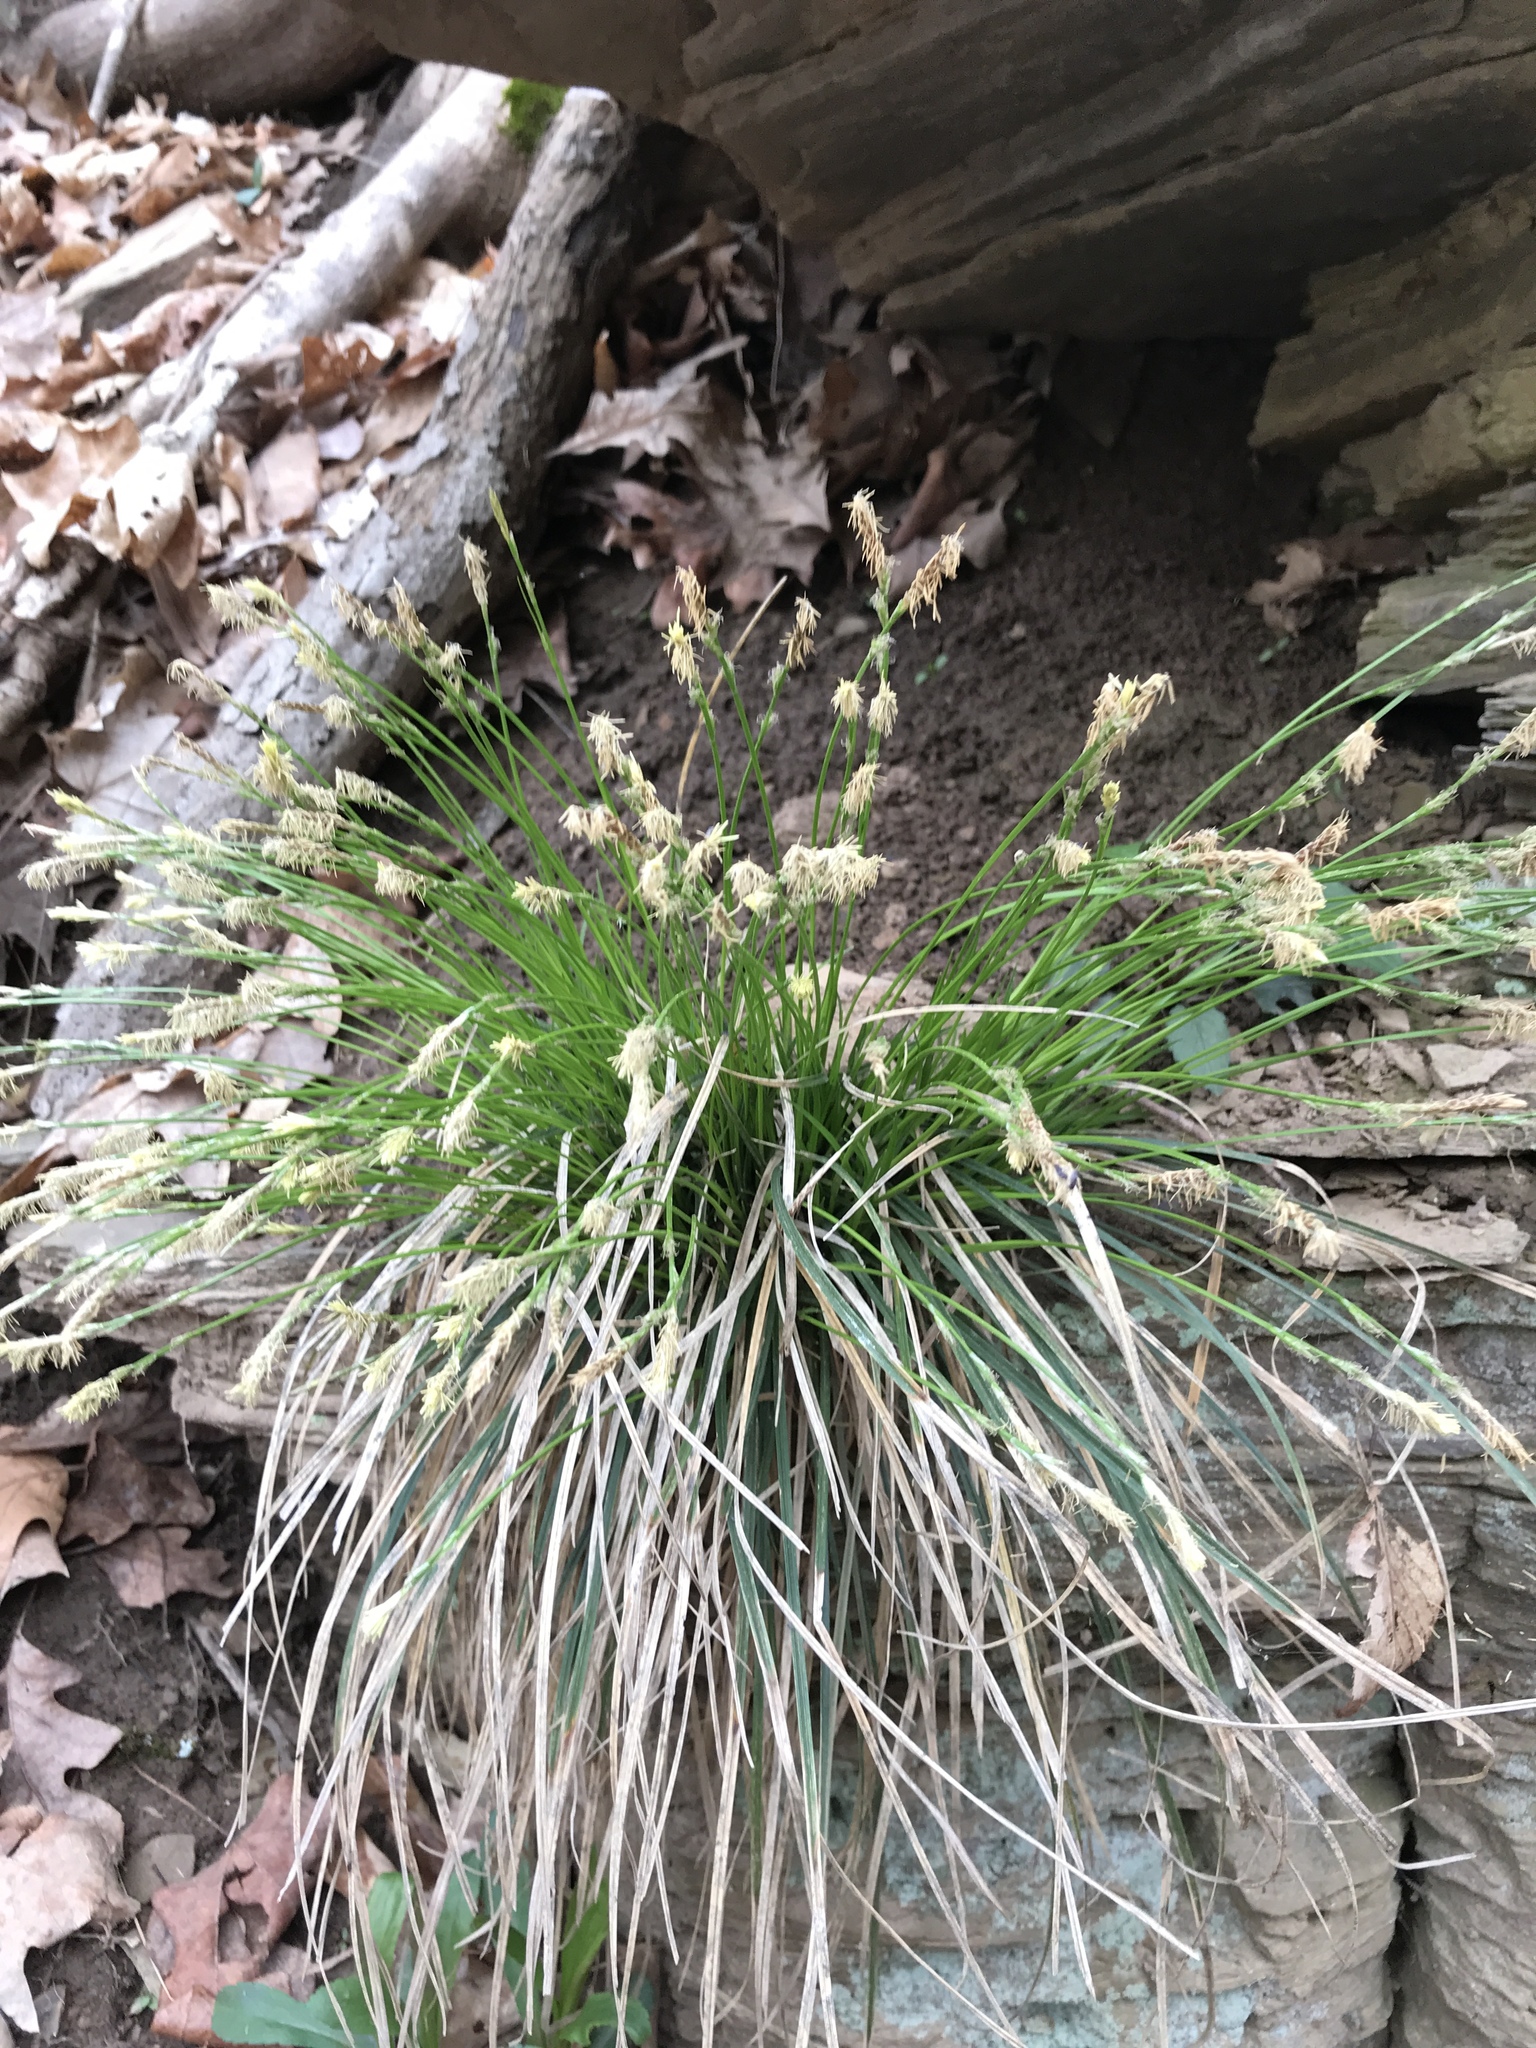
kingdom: Plantae
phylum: Tracheophyta
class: Liliopsida
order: Poales
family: Cyperaceae
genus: Carex
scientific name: Carex pensylvanica
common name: Common oak sedge
